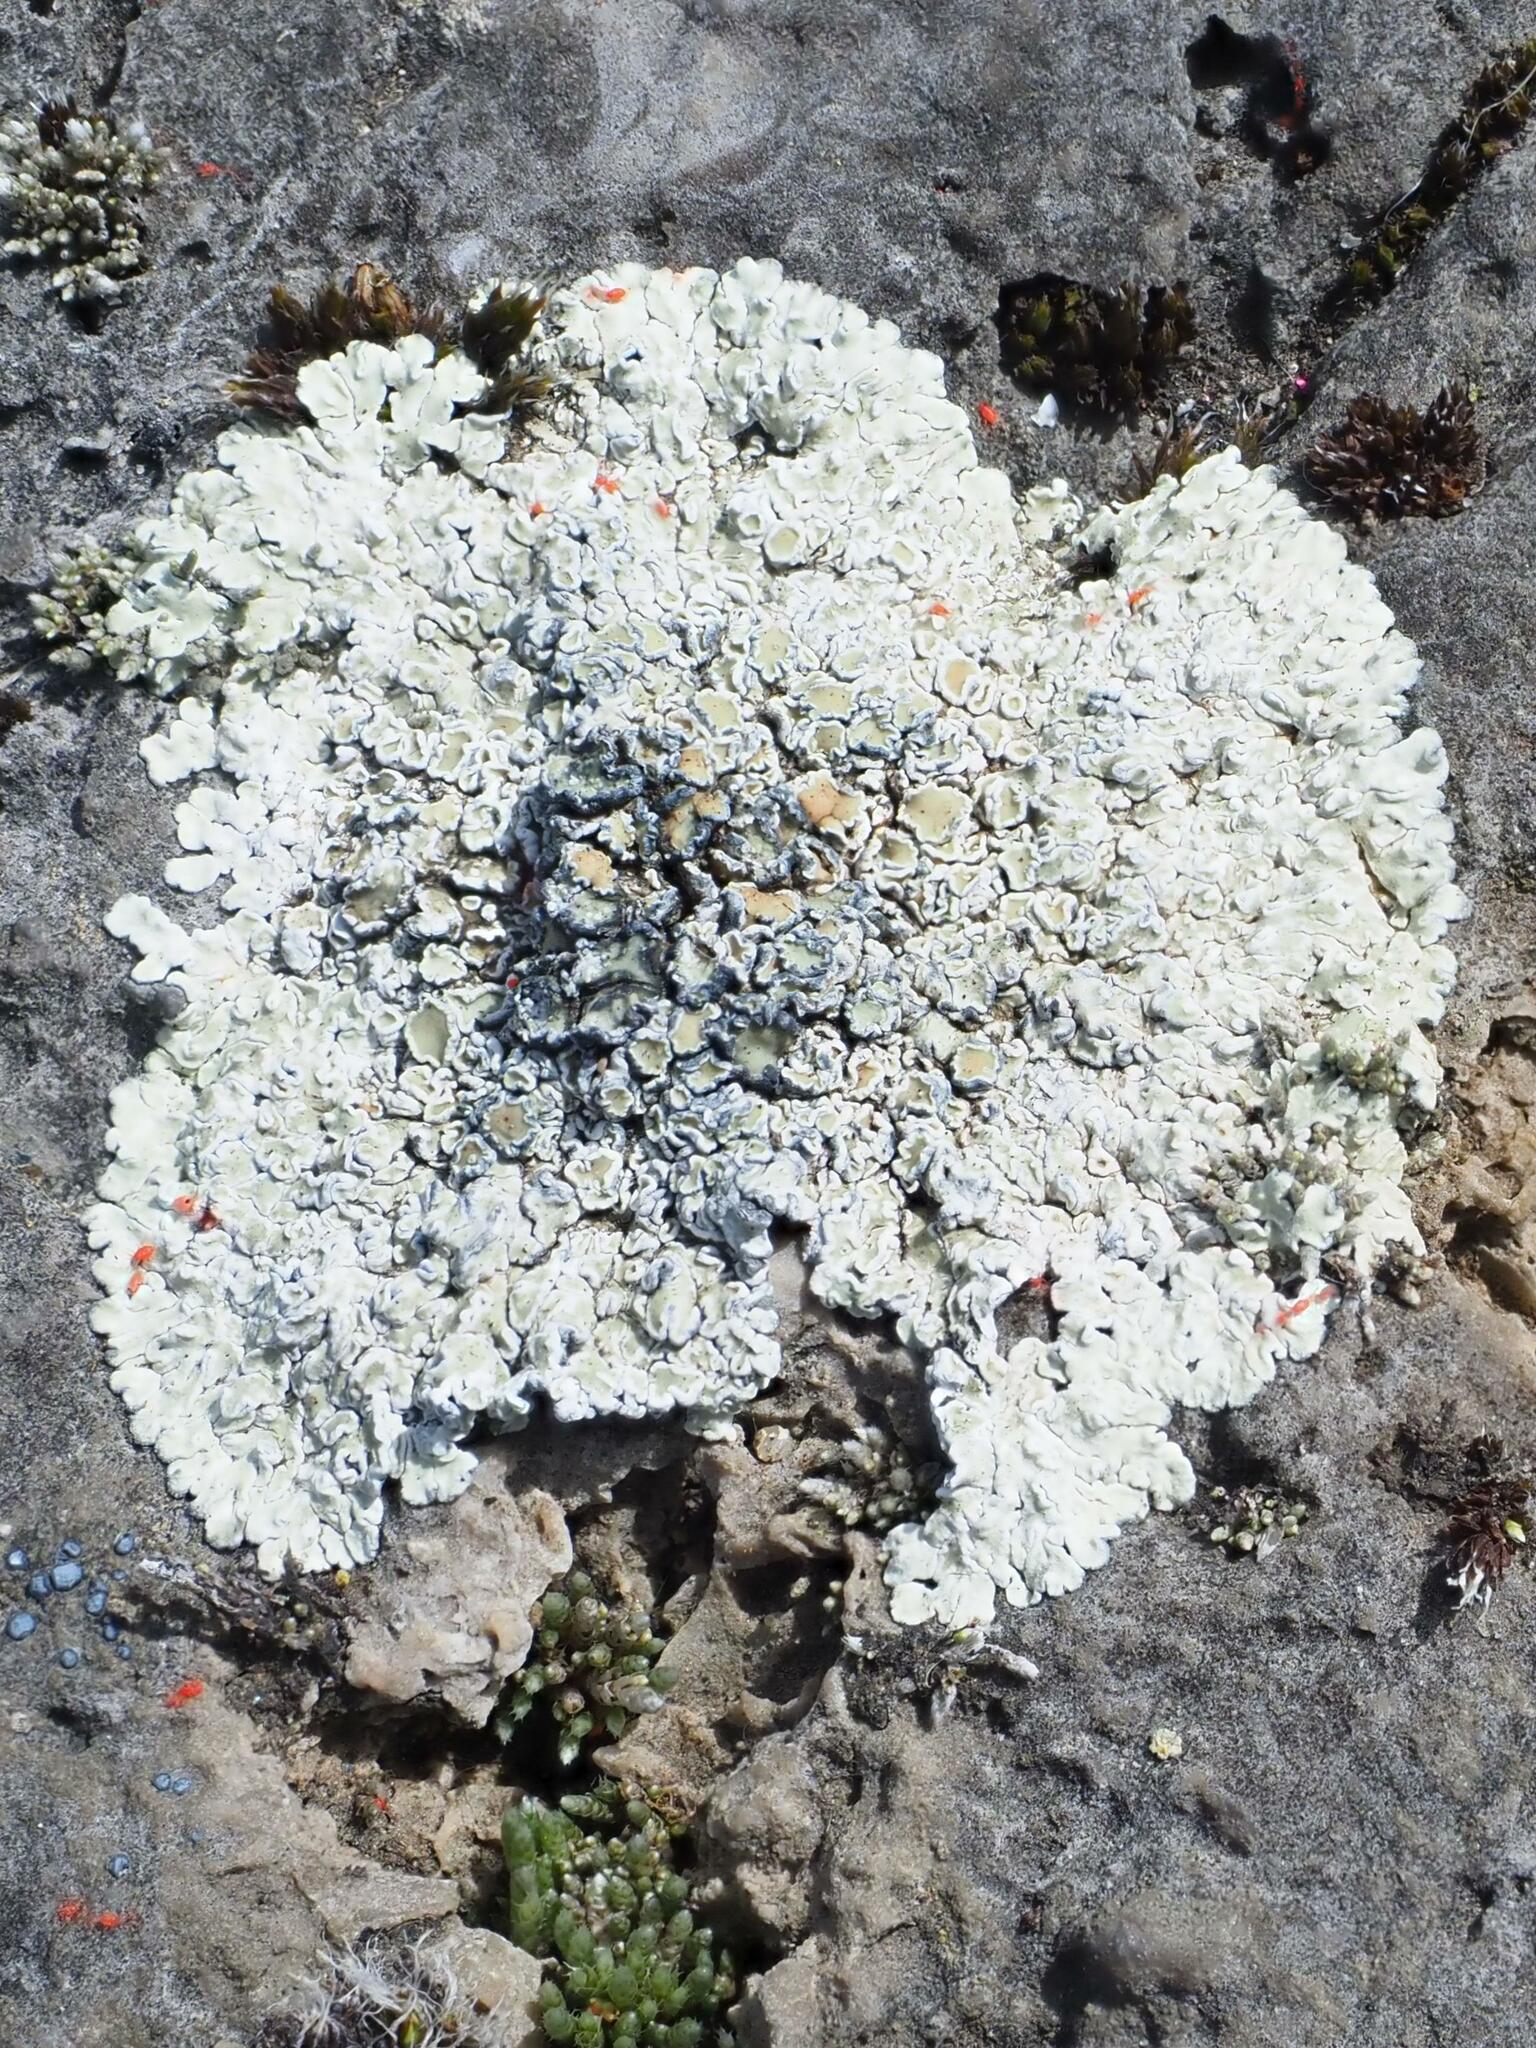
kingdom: Fungi
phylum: Ascomycota
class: Lecanoromycetes
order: Lecanorales
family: Lecanoraceae
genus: Protoparmeliopsis
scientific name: Protoparmeliopsis muralis
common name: Stonewall rim lichen
